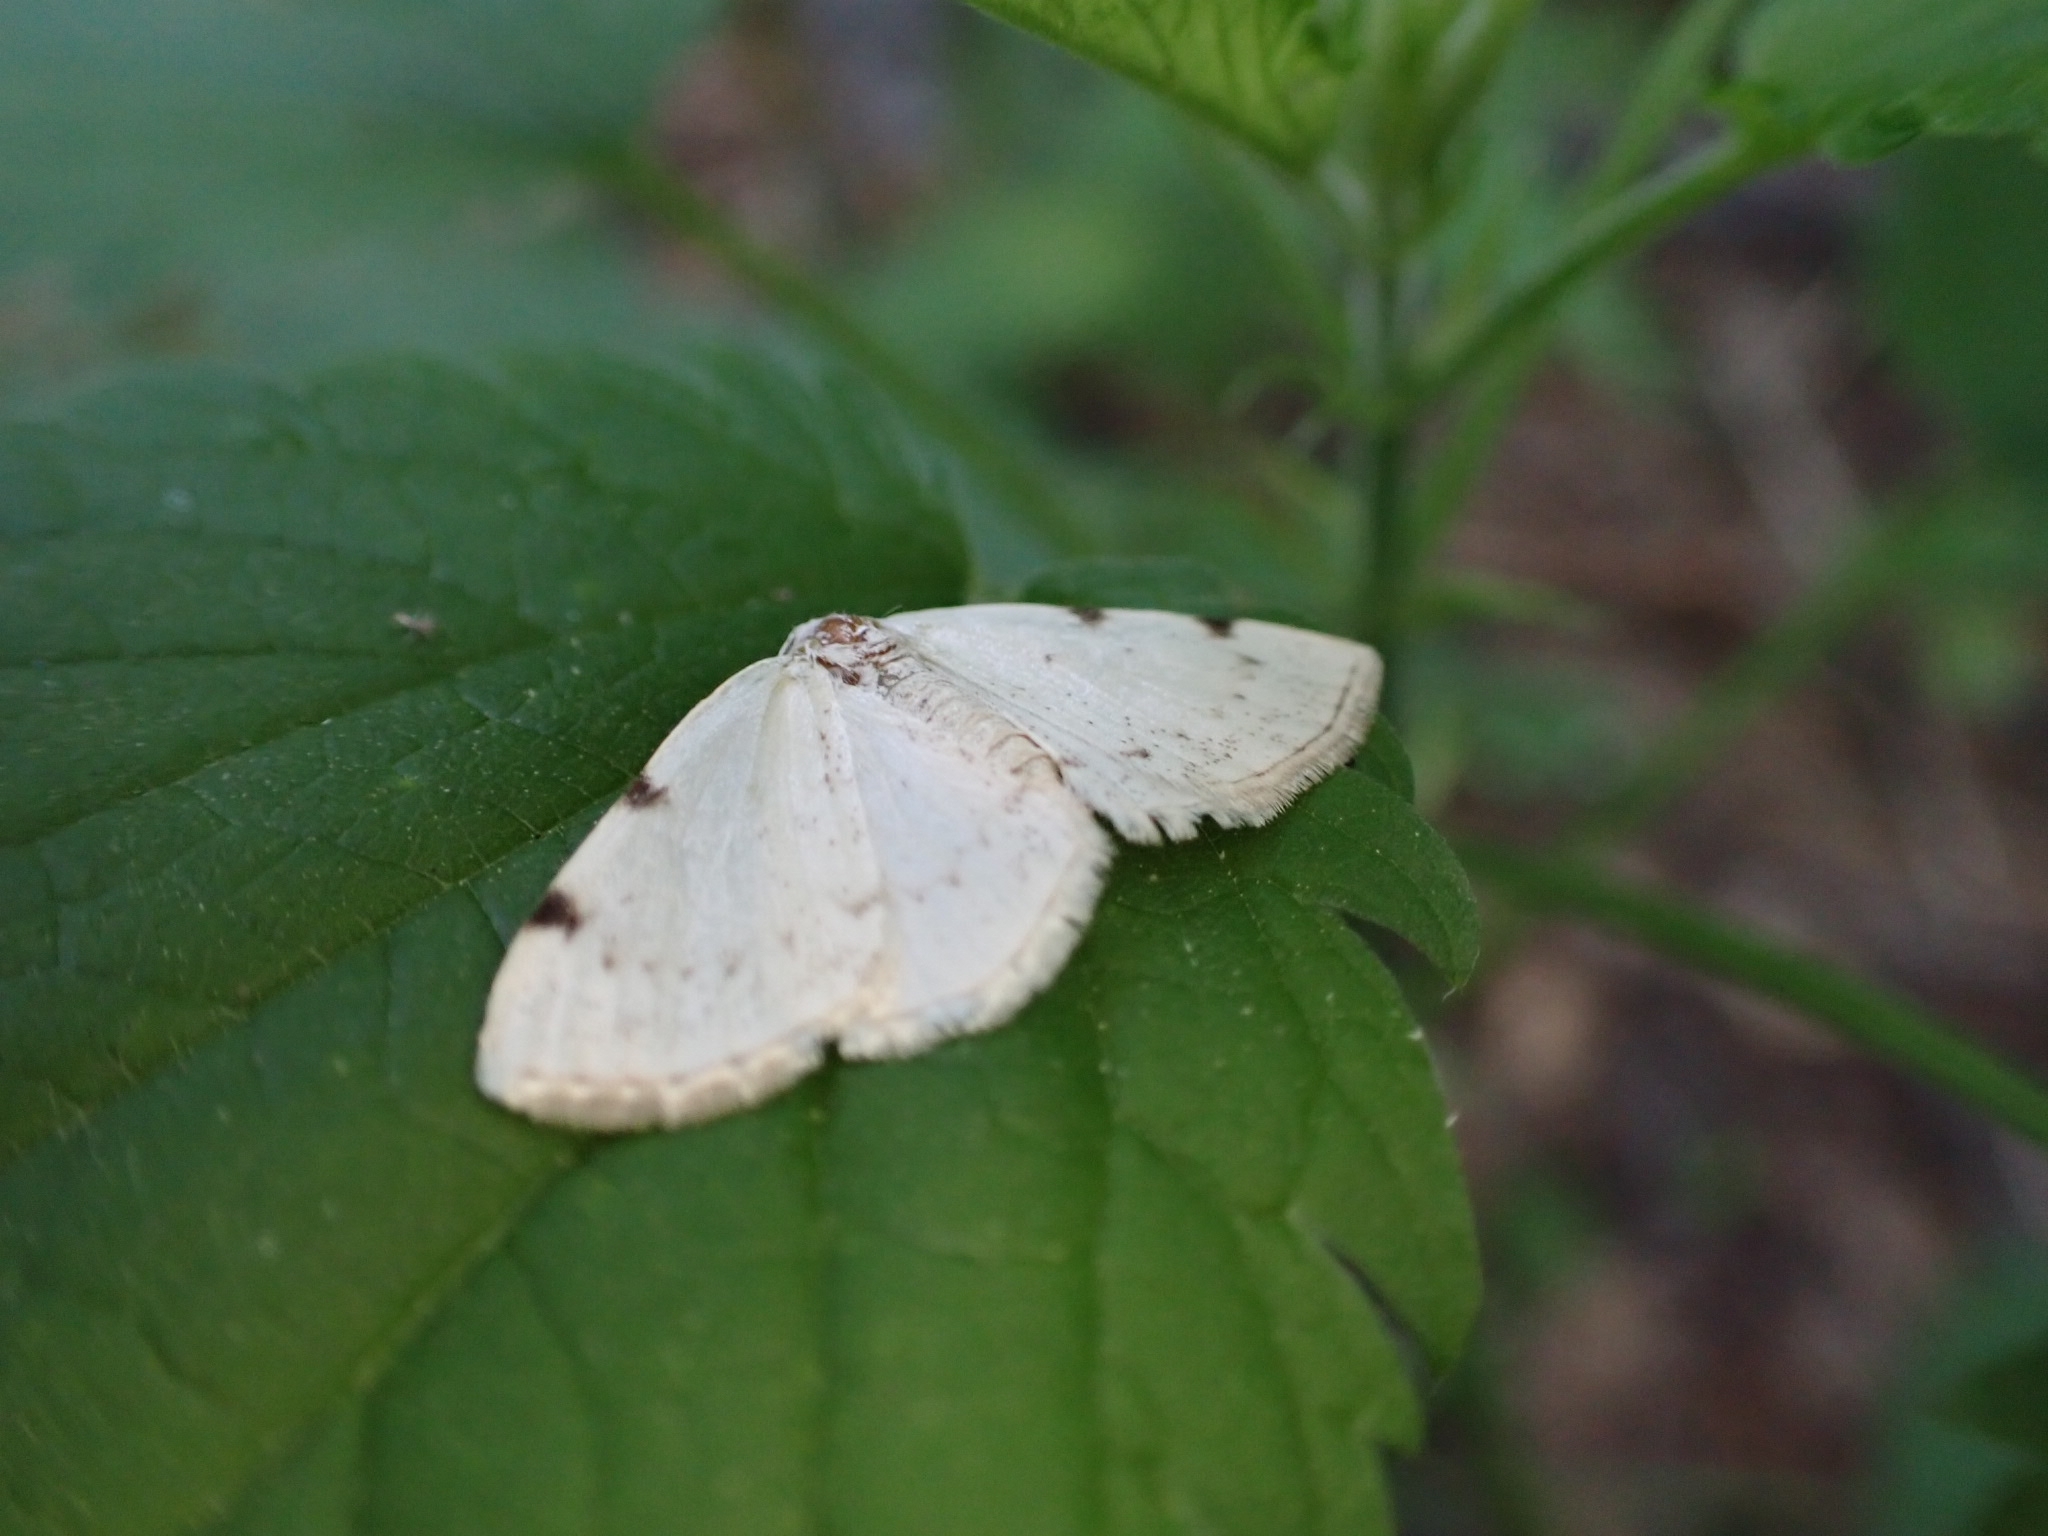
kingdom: Animalia
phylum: Arthropoda
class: Insecta
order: Lepidoptera
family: Geometridae
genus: Lomographa
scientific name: Lomographa bimaculata
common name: White-pinion spotted
